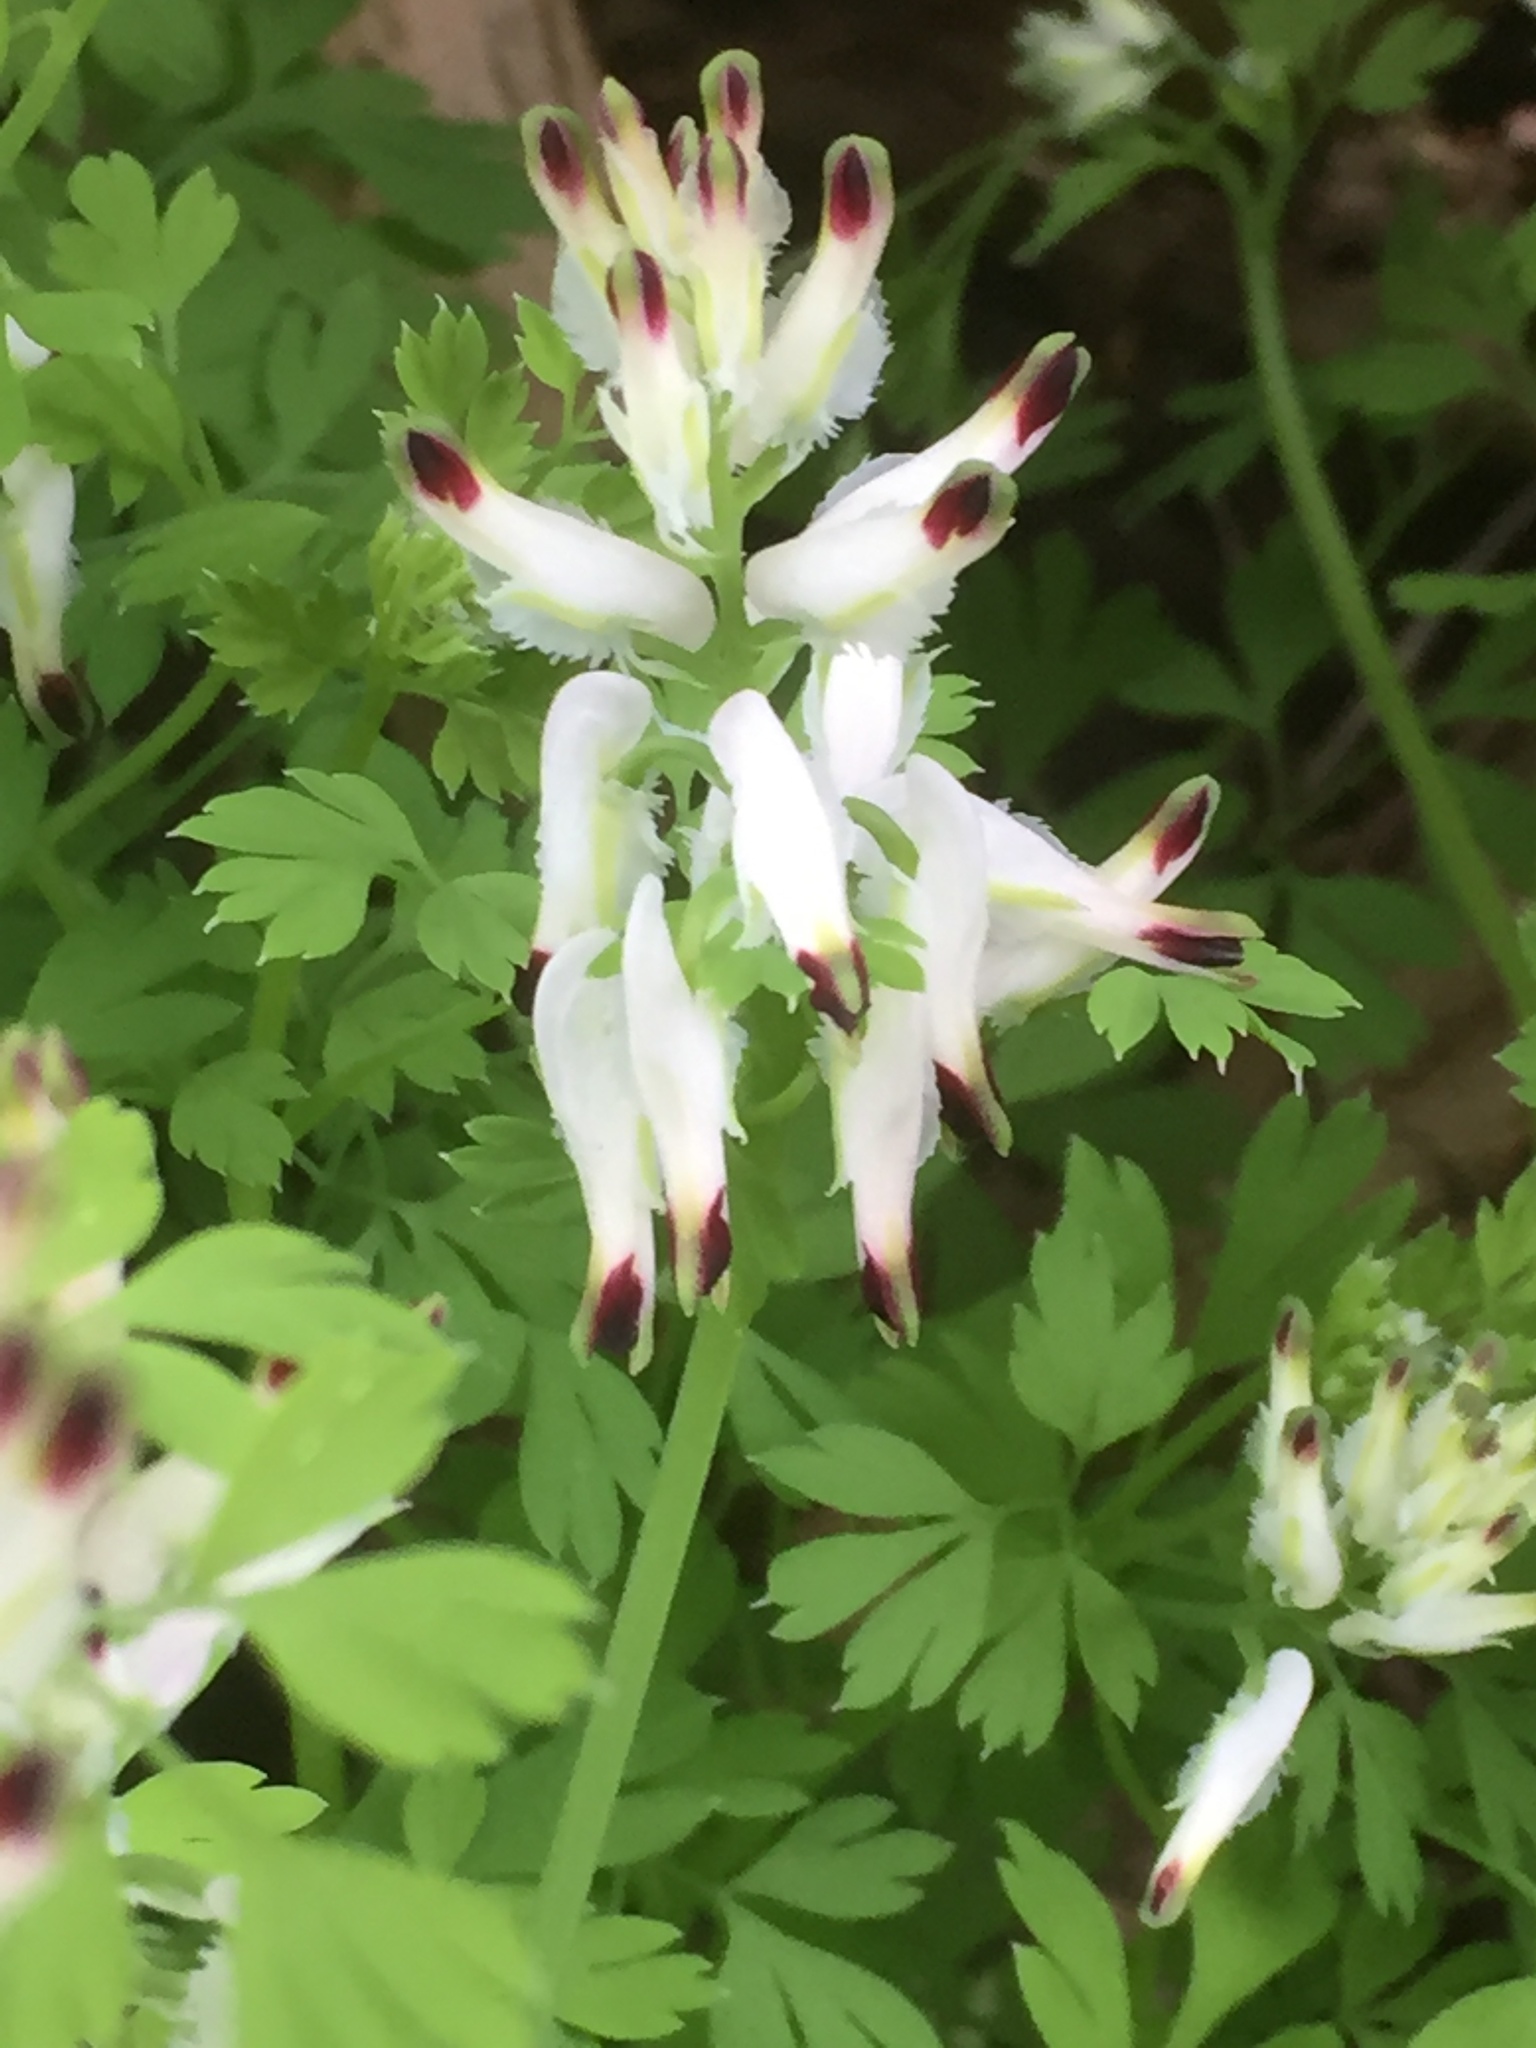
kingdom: Plantae
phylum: Tracheophyta
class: Magnoliopsida
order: Ranunculales
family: Papaveraceae
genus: Fumaria
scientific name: Fumaria capreolata
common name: White ramping-fumitory
